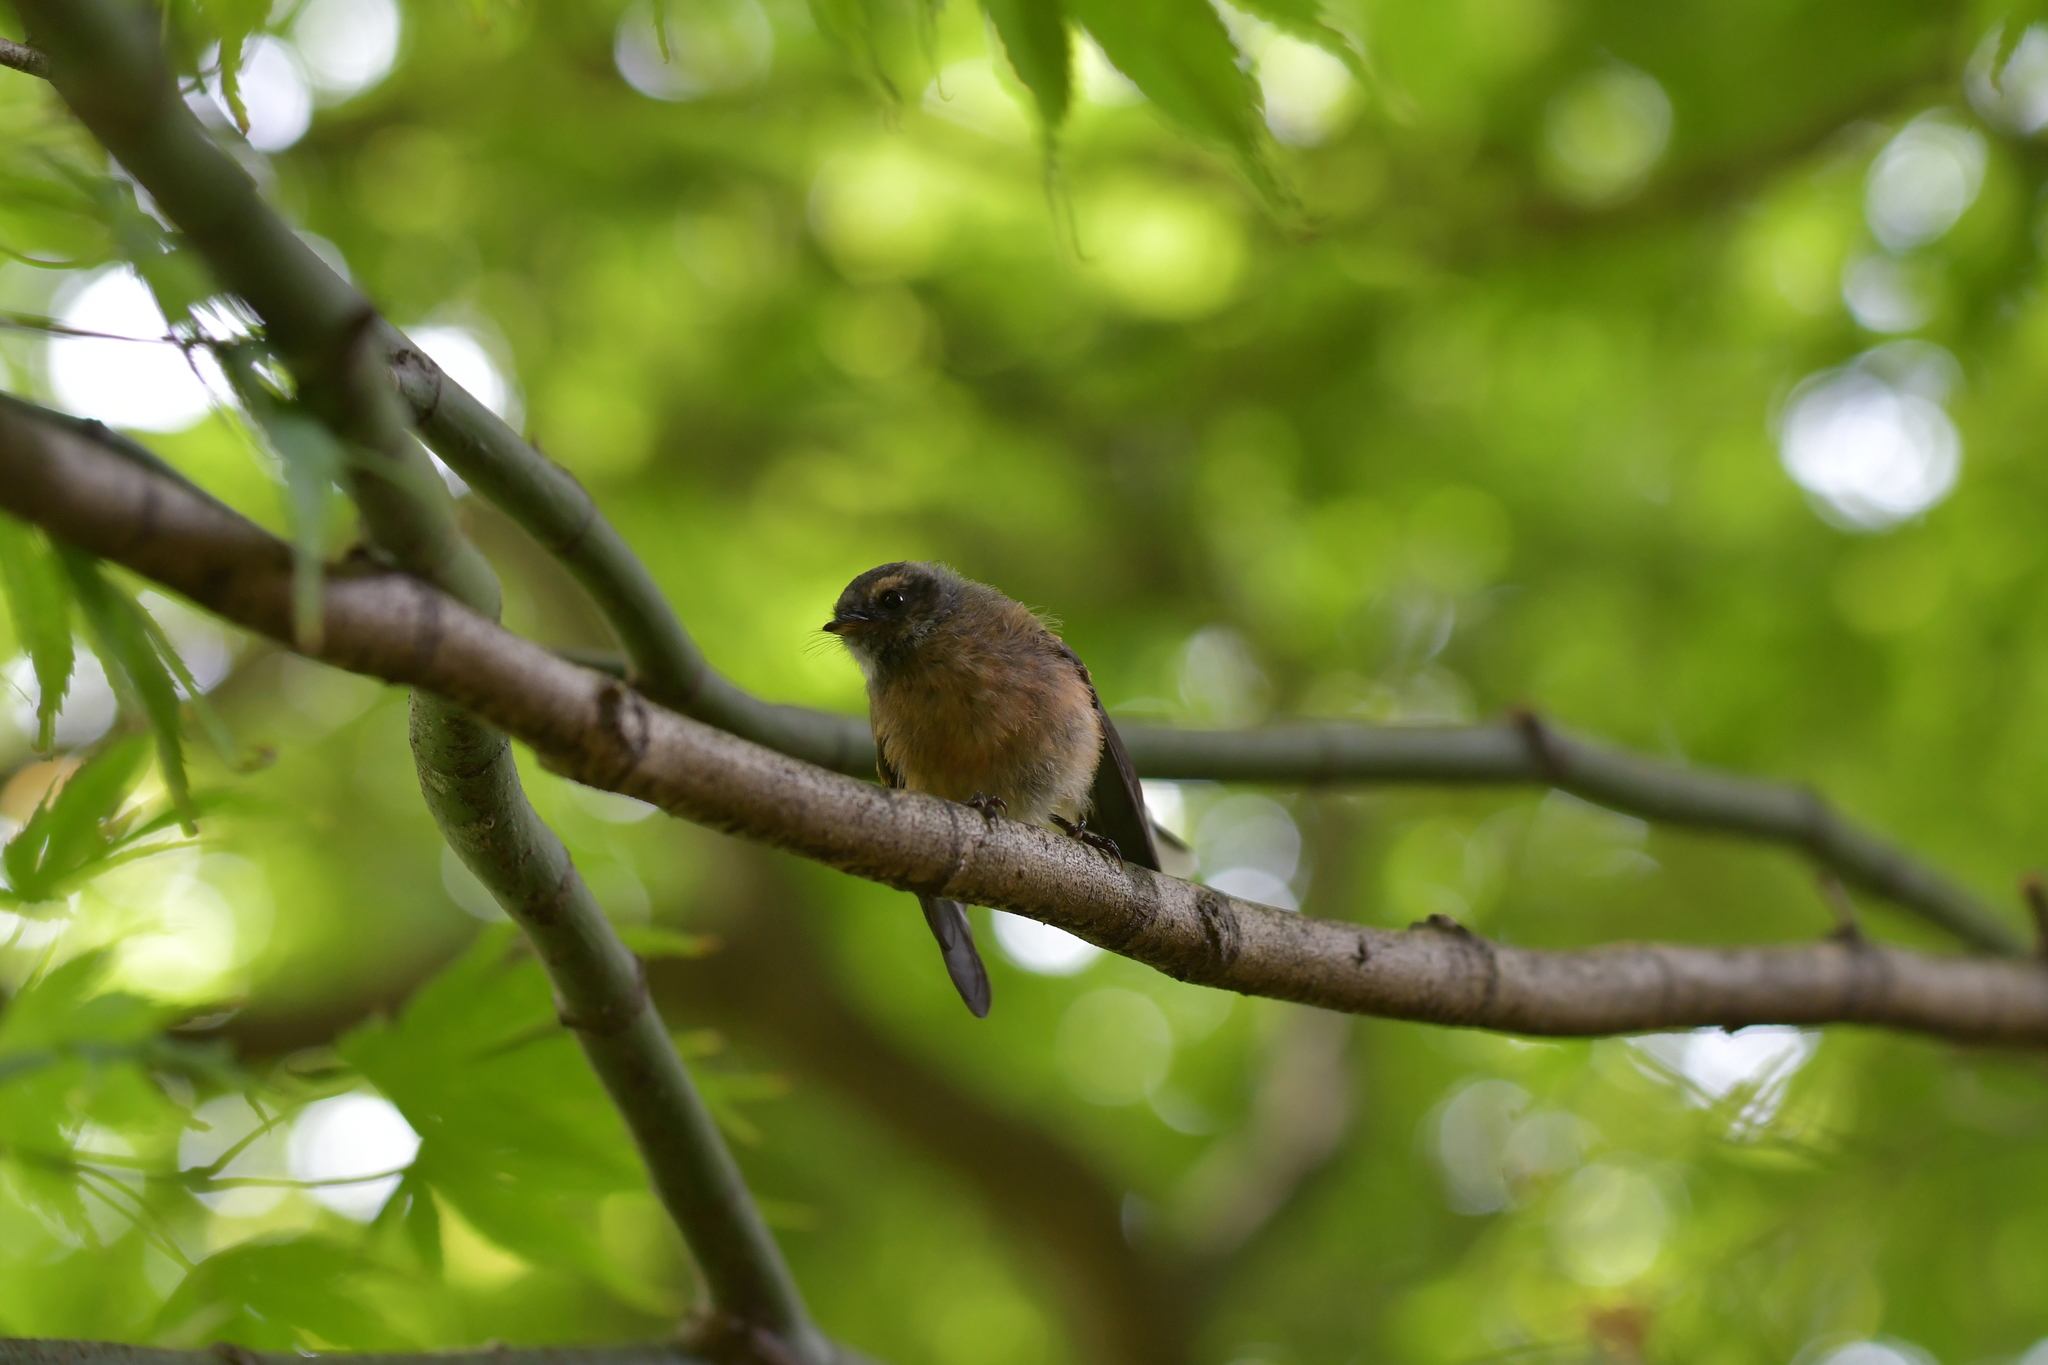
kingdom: Animalia
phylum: Chordata
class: Aves
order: Passeriformes
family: Rhipiduridae
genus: Rhipidura
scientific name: Rhipidura fuliginosa
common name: New zealand fantail
